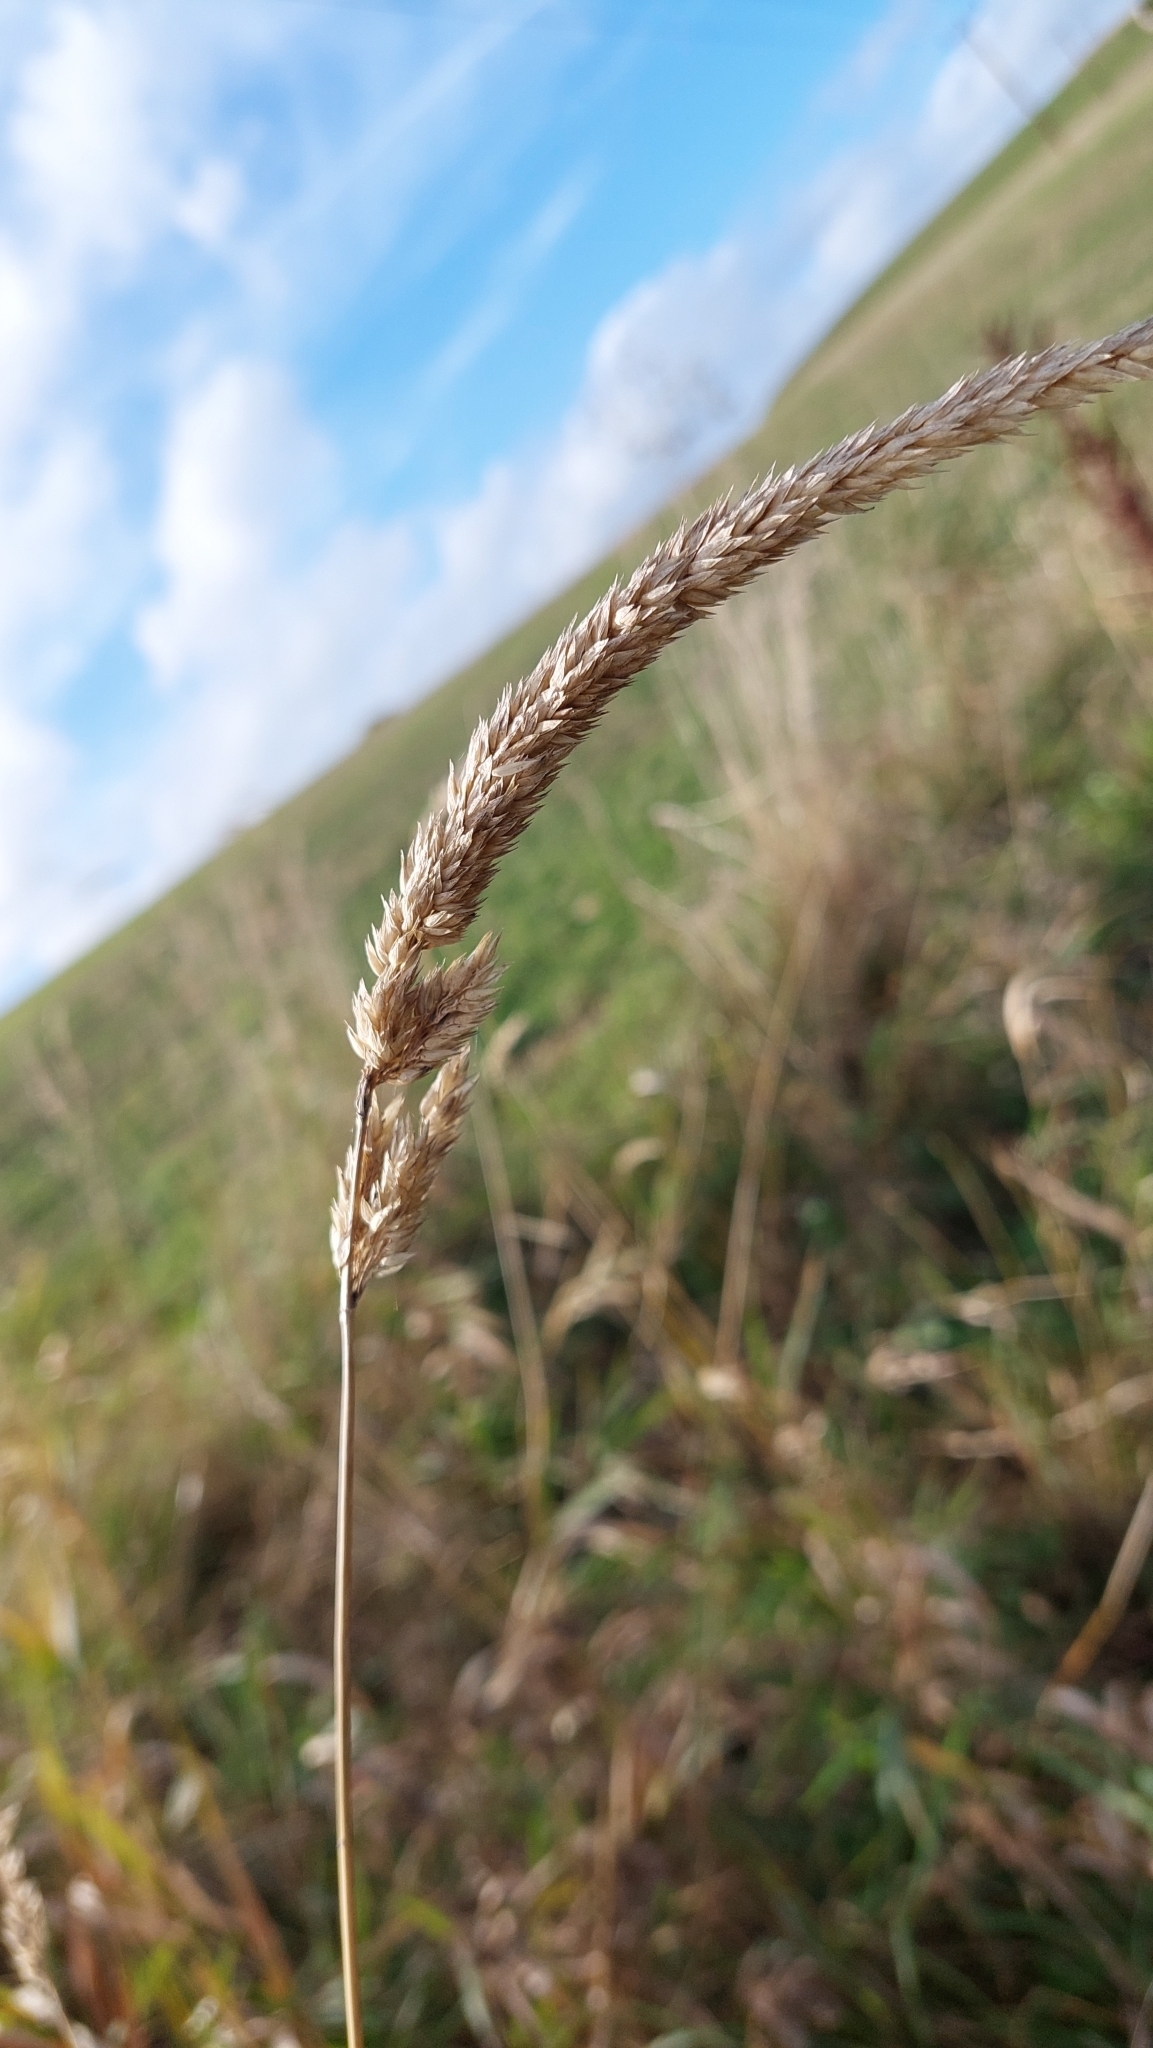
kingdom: Plantae
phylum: Tracheophyta
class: Liliopsida
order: Poales
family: Poaceae
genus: Phalaris
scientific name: Phalaris arundinacea
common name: Reed canary-grass
